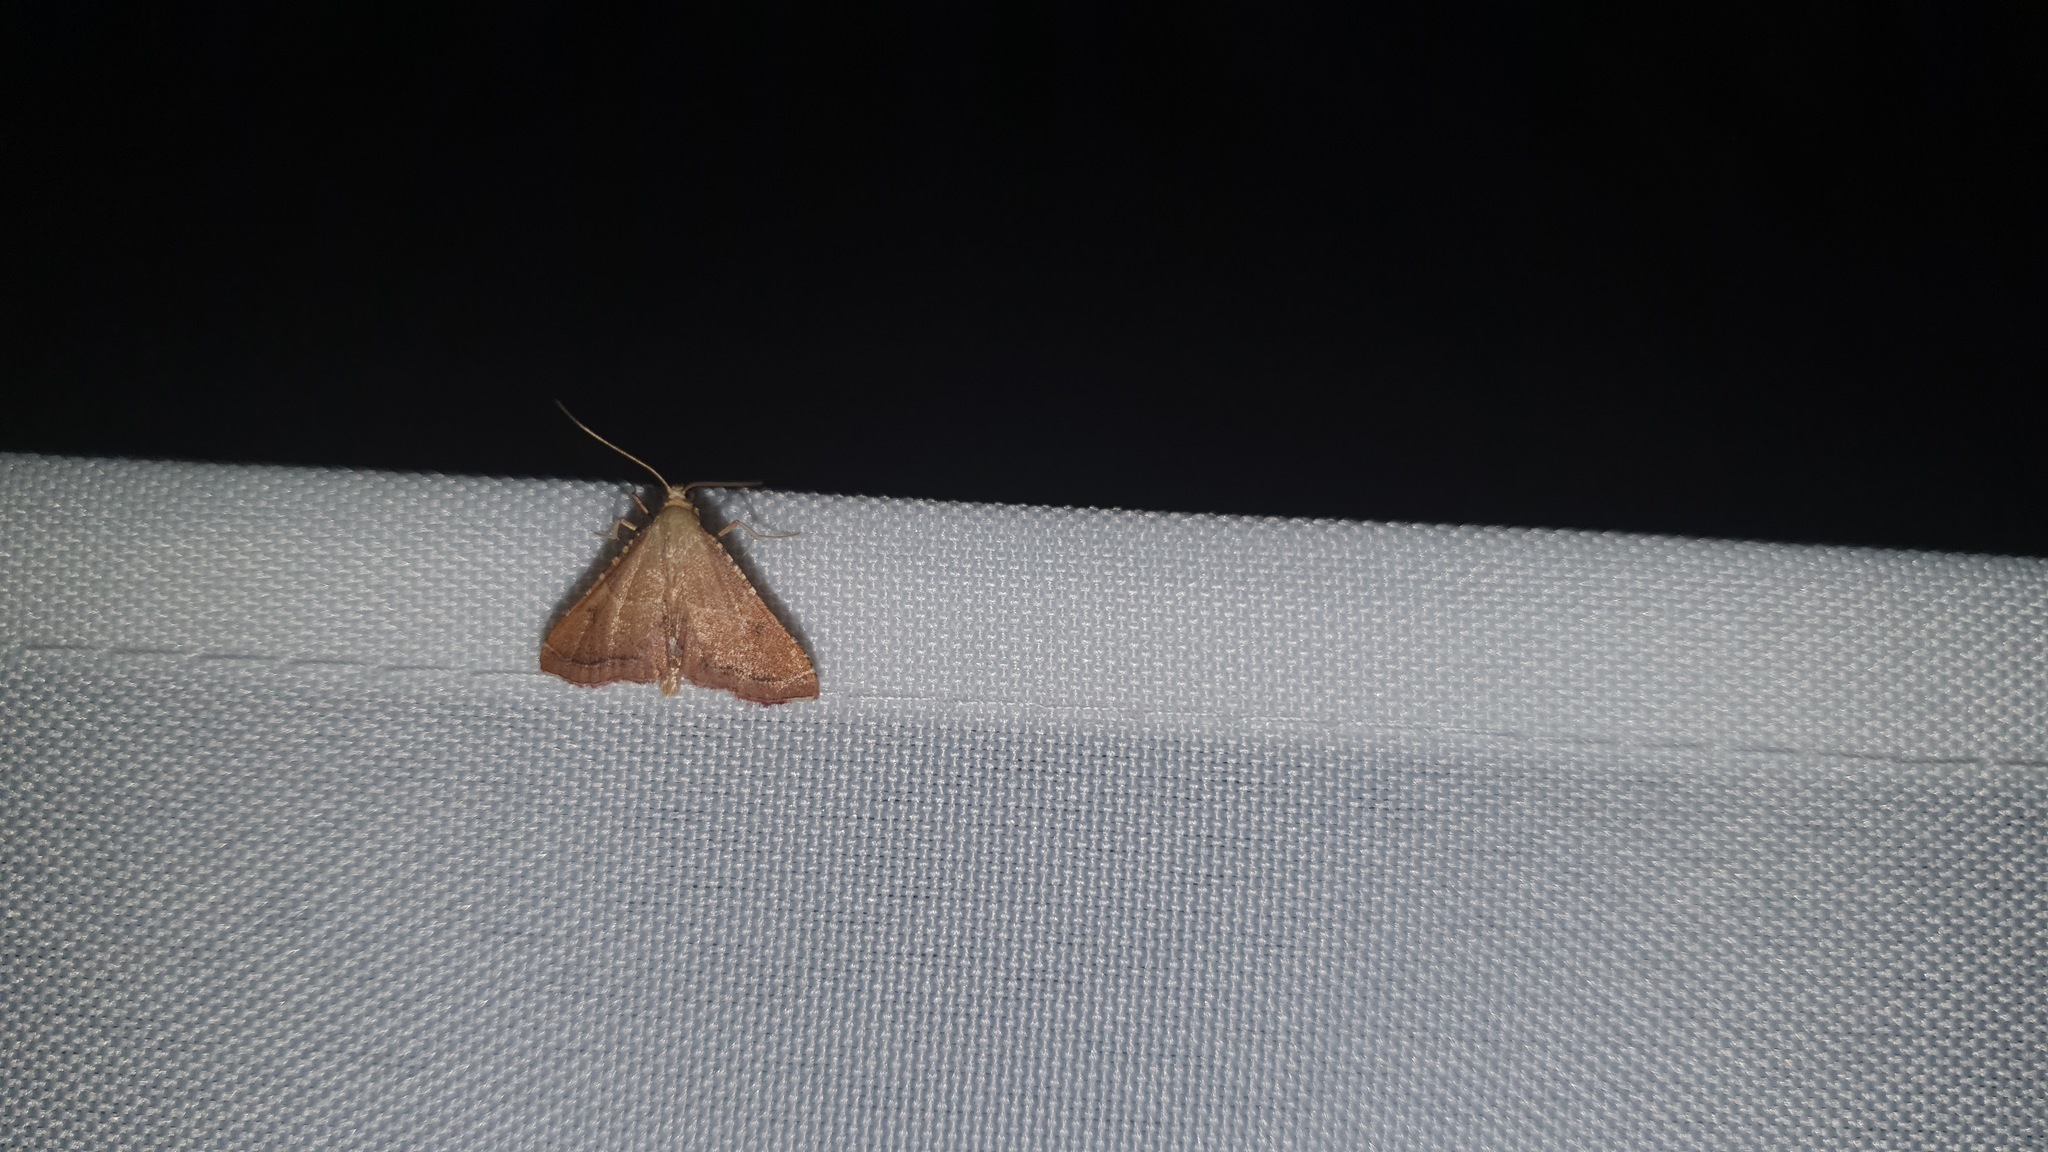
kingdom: Animalia
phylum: Arthropoda
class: Insecta
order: Lepidoptera
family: Pyralidae
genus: Endotricha
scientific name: Endotricha flammealis
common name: Rosy tabby
